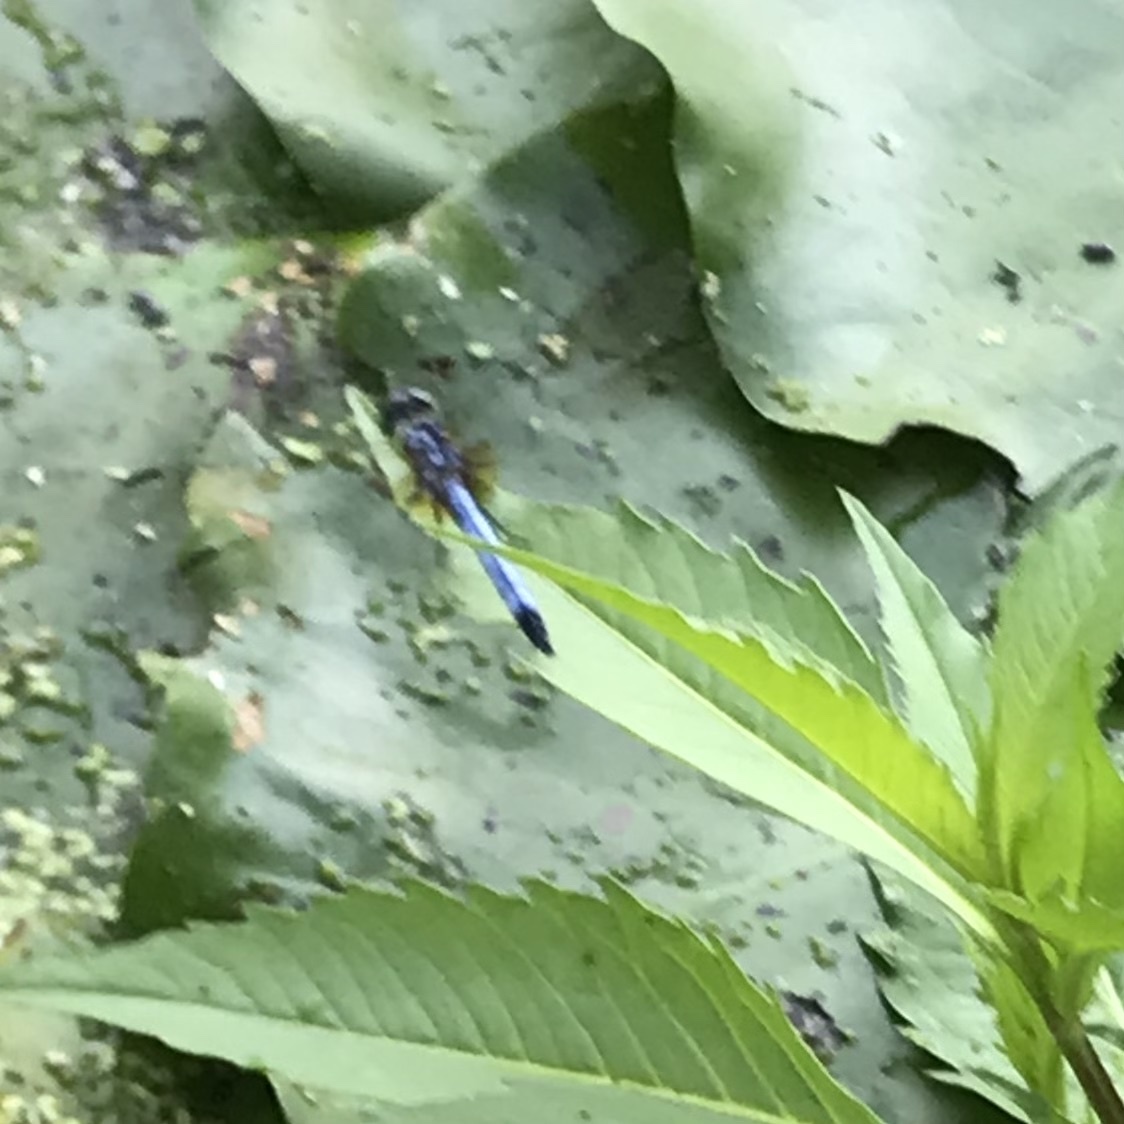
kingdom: Animalia
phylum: Arthropoda
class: Insecta
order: Odonata
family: Libellulidae
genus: Pachydiplax
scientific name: Pachydiplax longipennis
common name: Blue dasher
